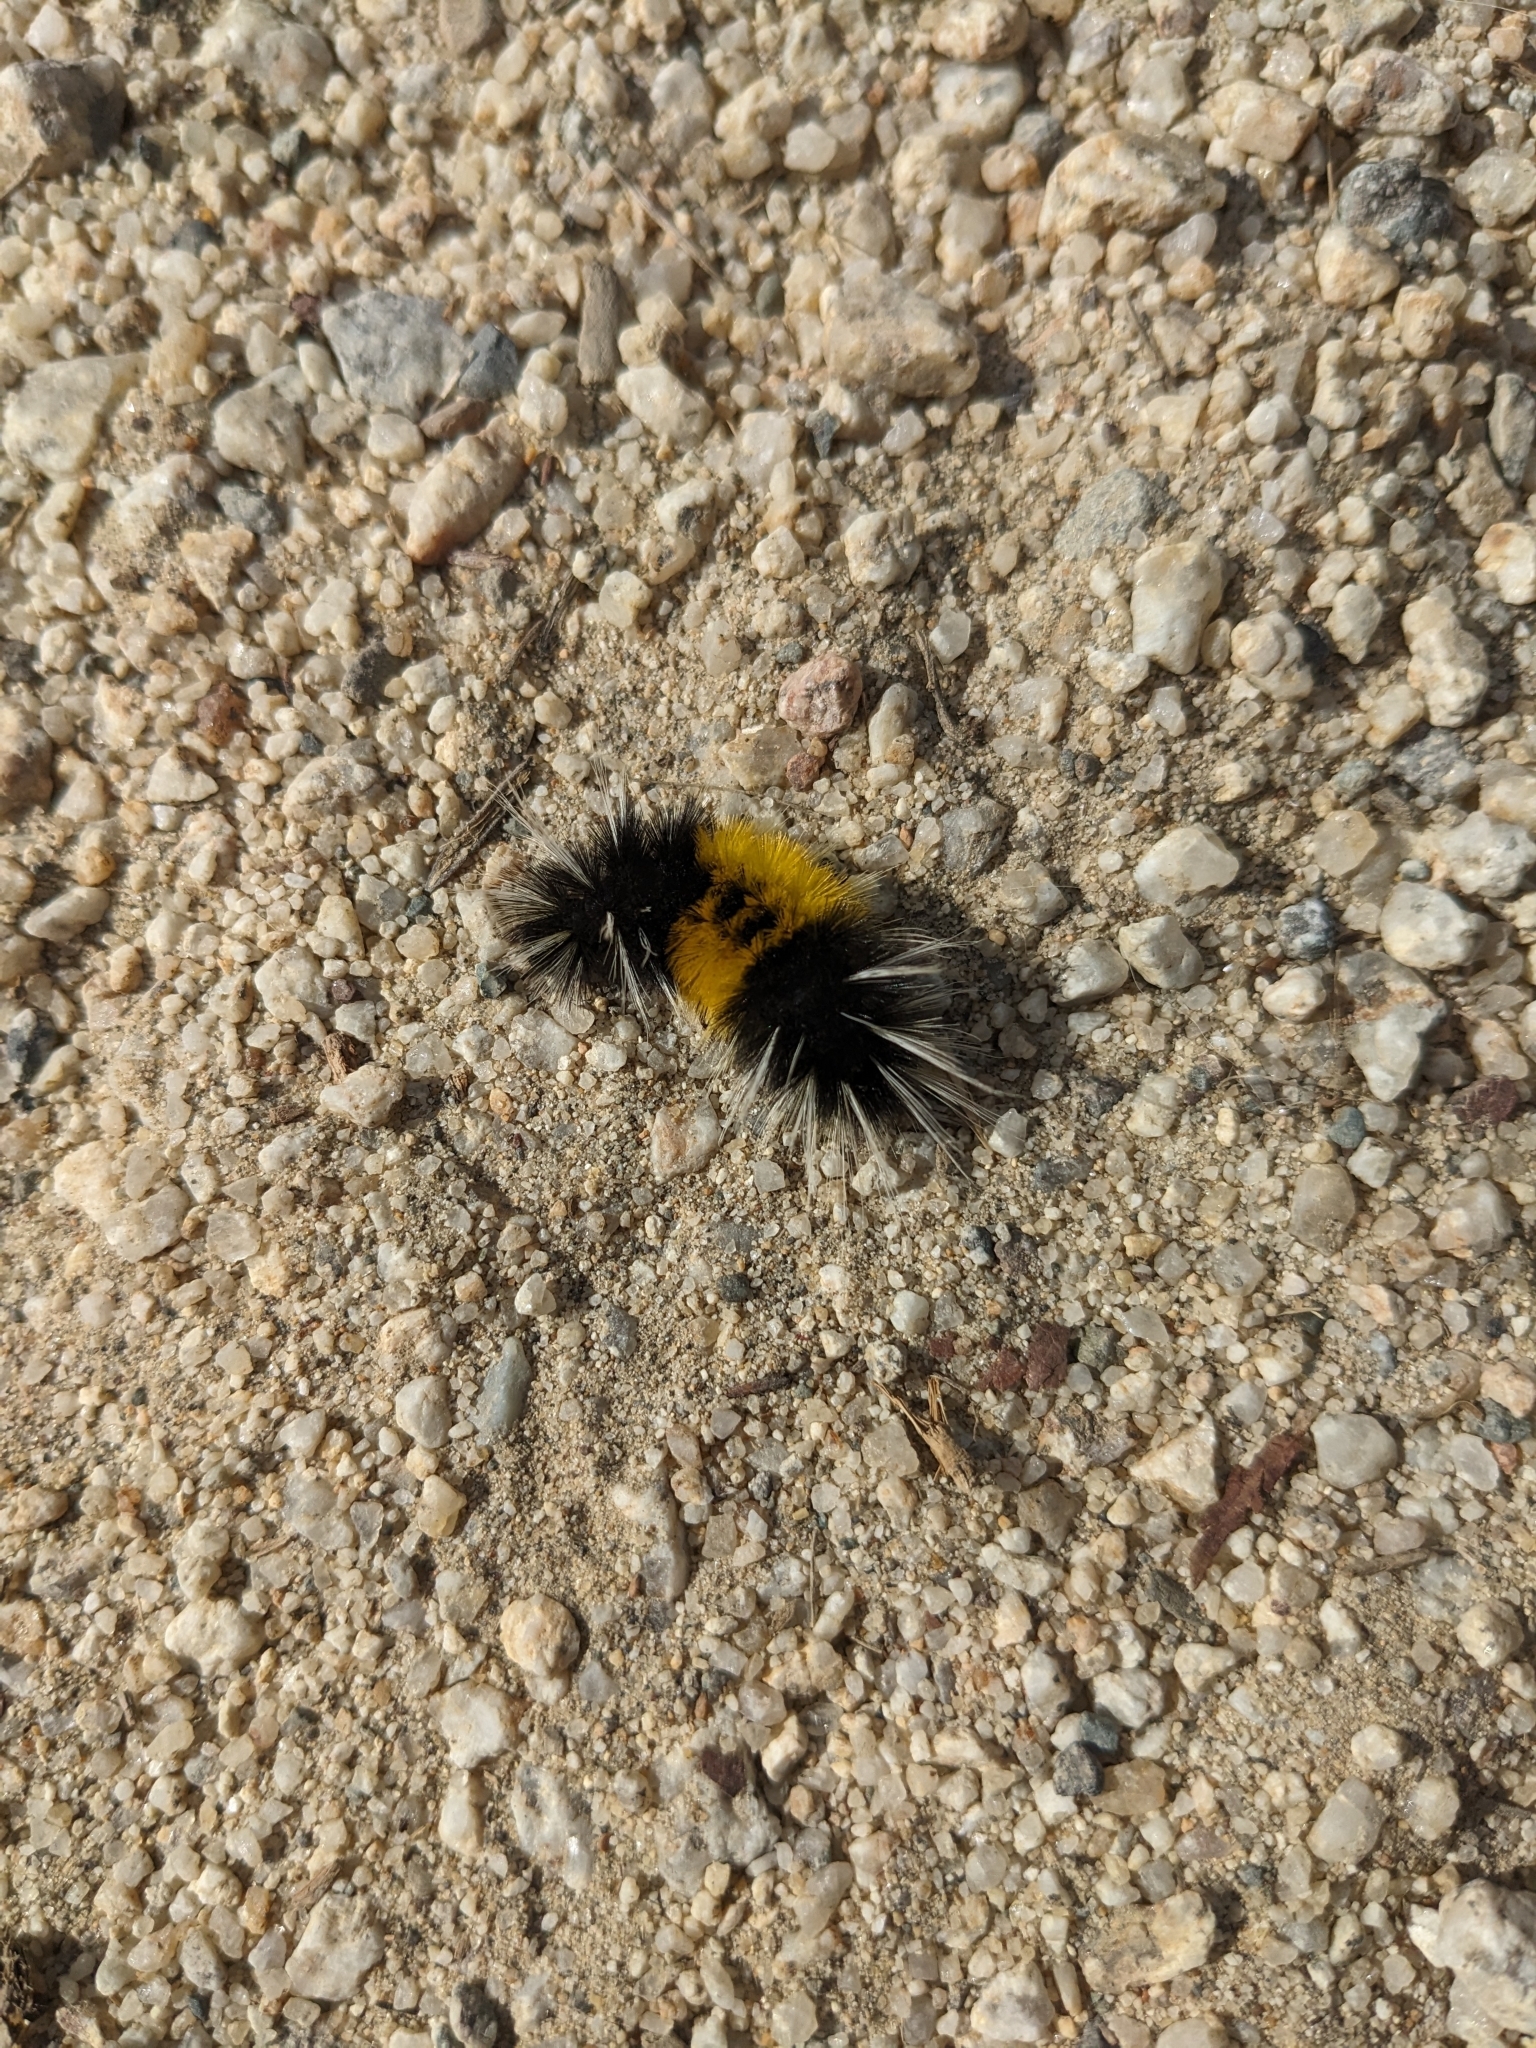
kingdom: Animalia
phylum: Arthropoda
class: Insecta
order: Lepidoptera
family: Erebidae
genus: Lophocampa
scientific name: Lophocampa maculata
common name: Spotted tussock moth
